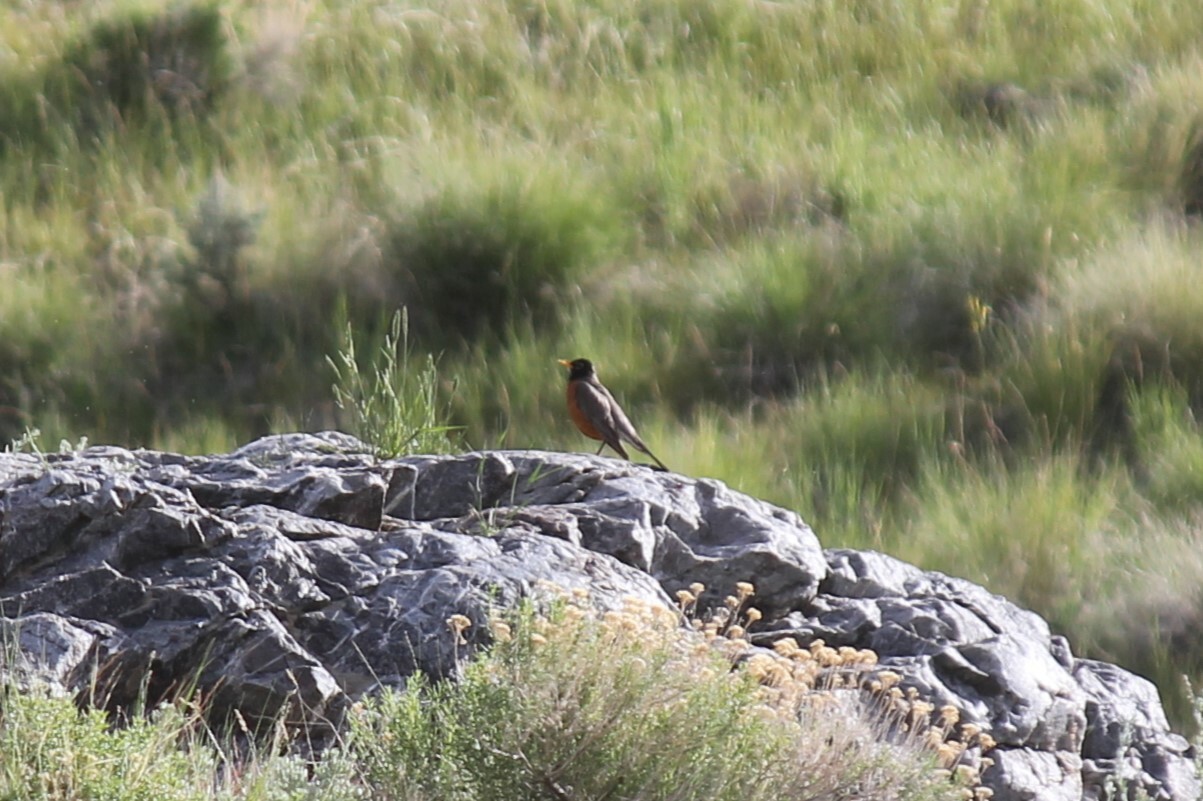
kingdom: Animalia
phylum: Chordata
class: Aves
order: Passeriformes
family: Turdidae
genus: Turdus
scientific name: Turdus migratorius
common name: American robin
